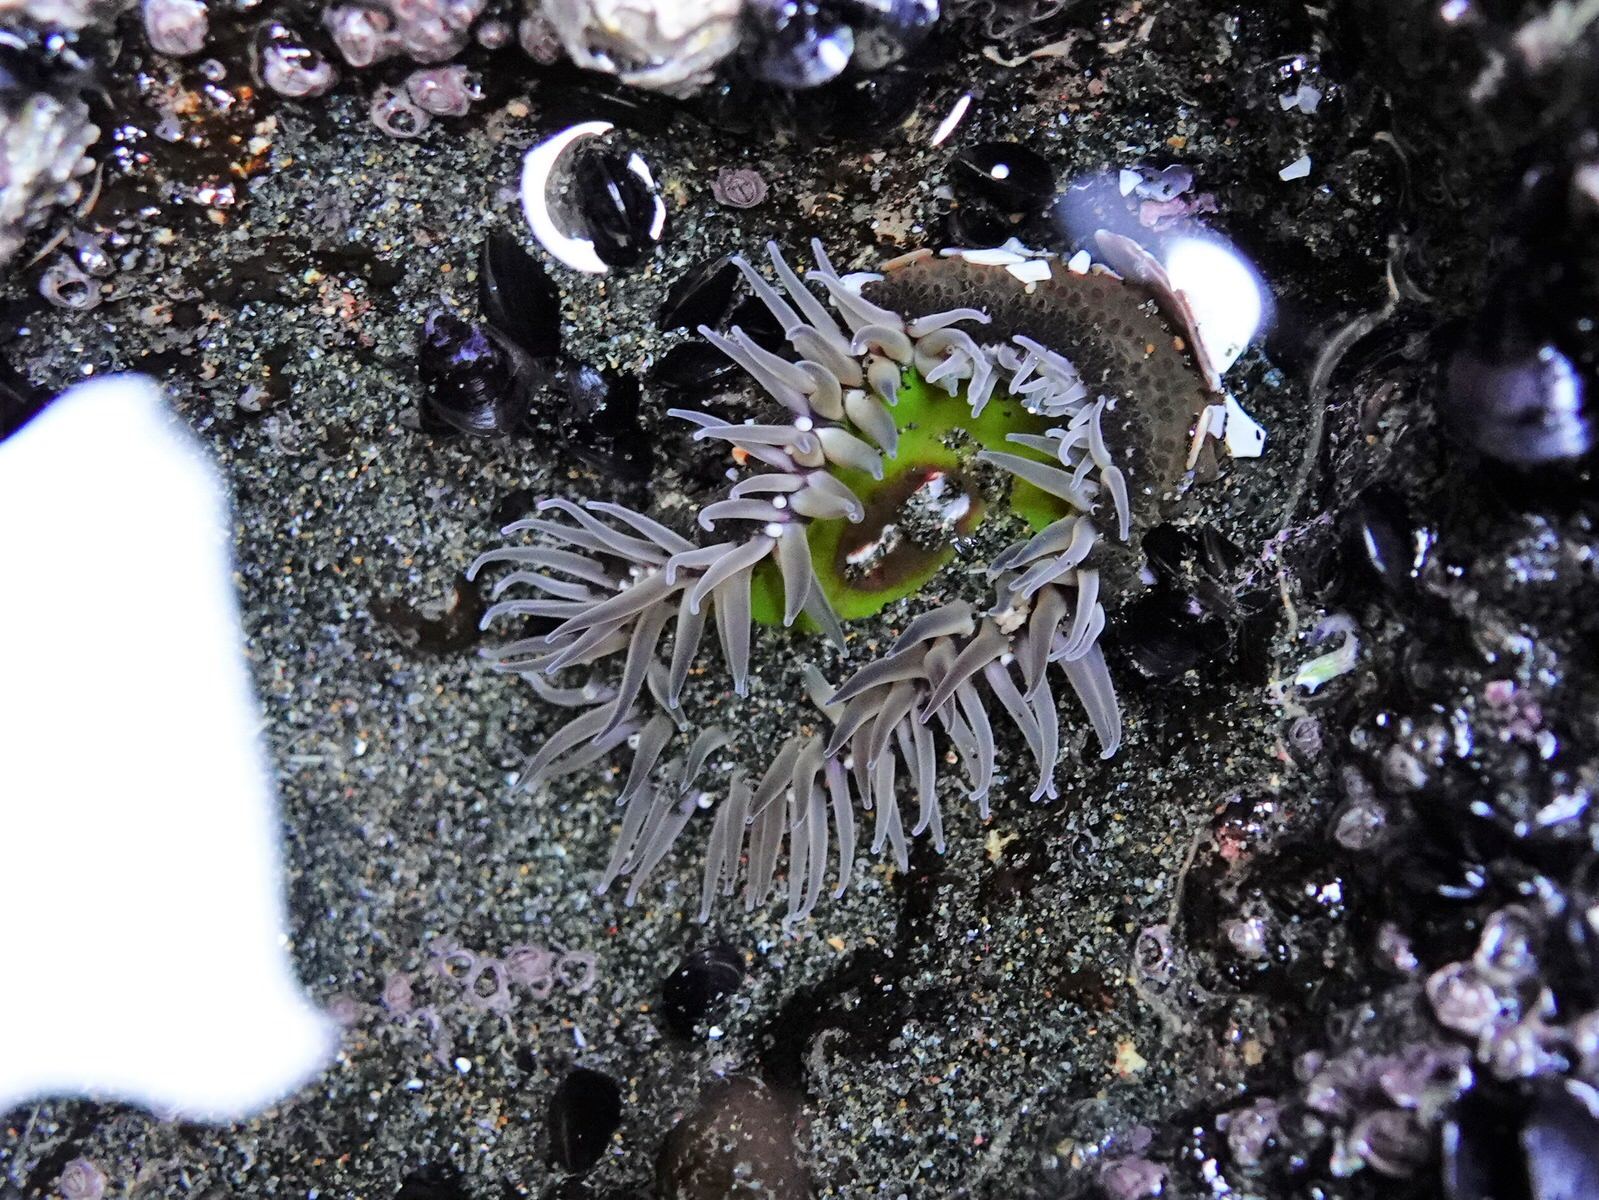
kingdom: Animalia
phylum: Cnidaria
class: Anthozoa
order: Actiniaria
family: Actiniidae
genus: Oulactis
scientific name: Oulactis magna
